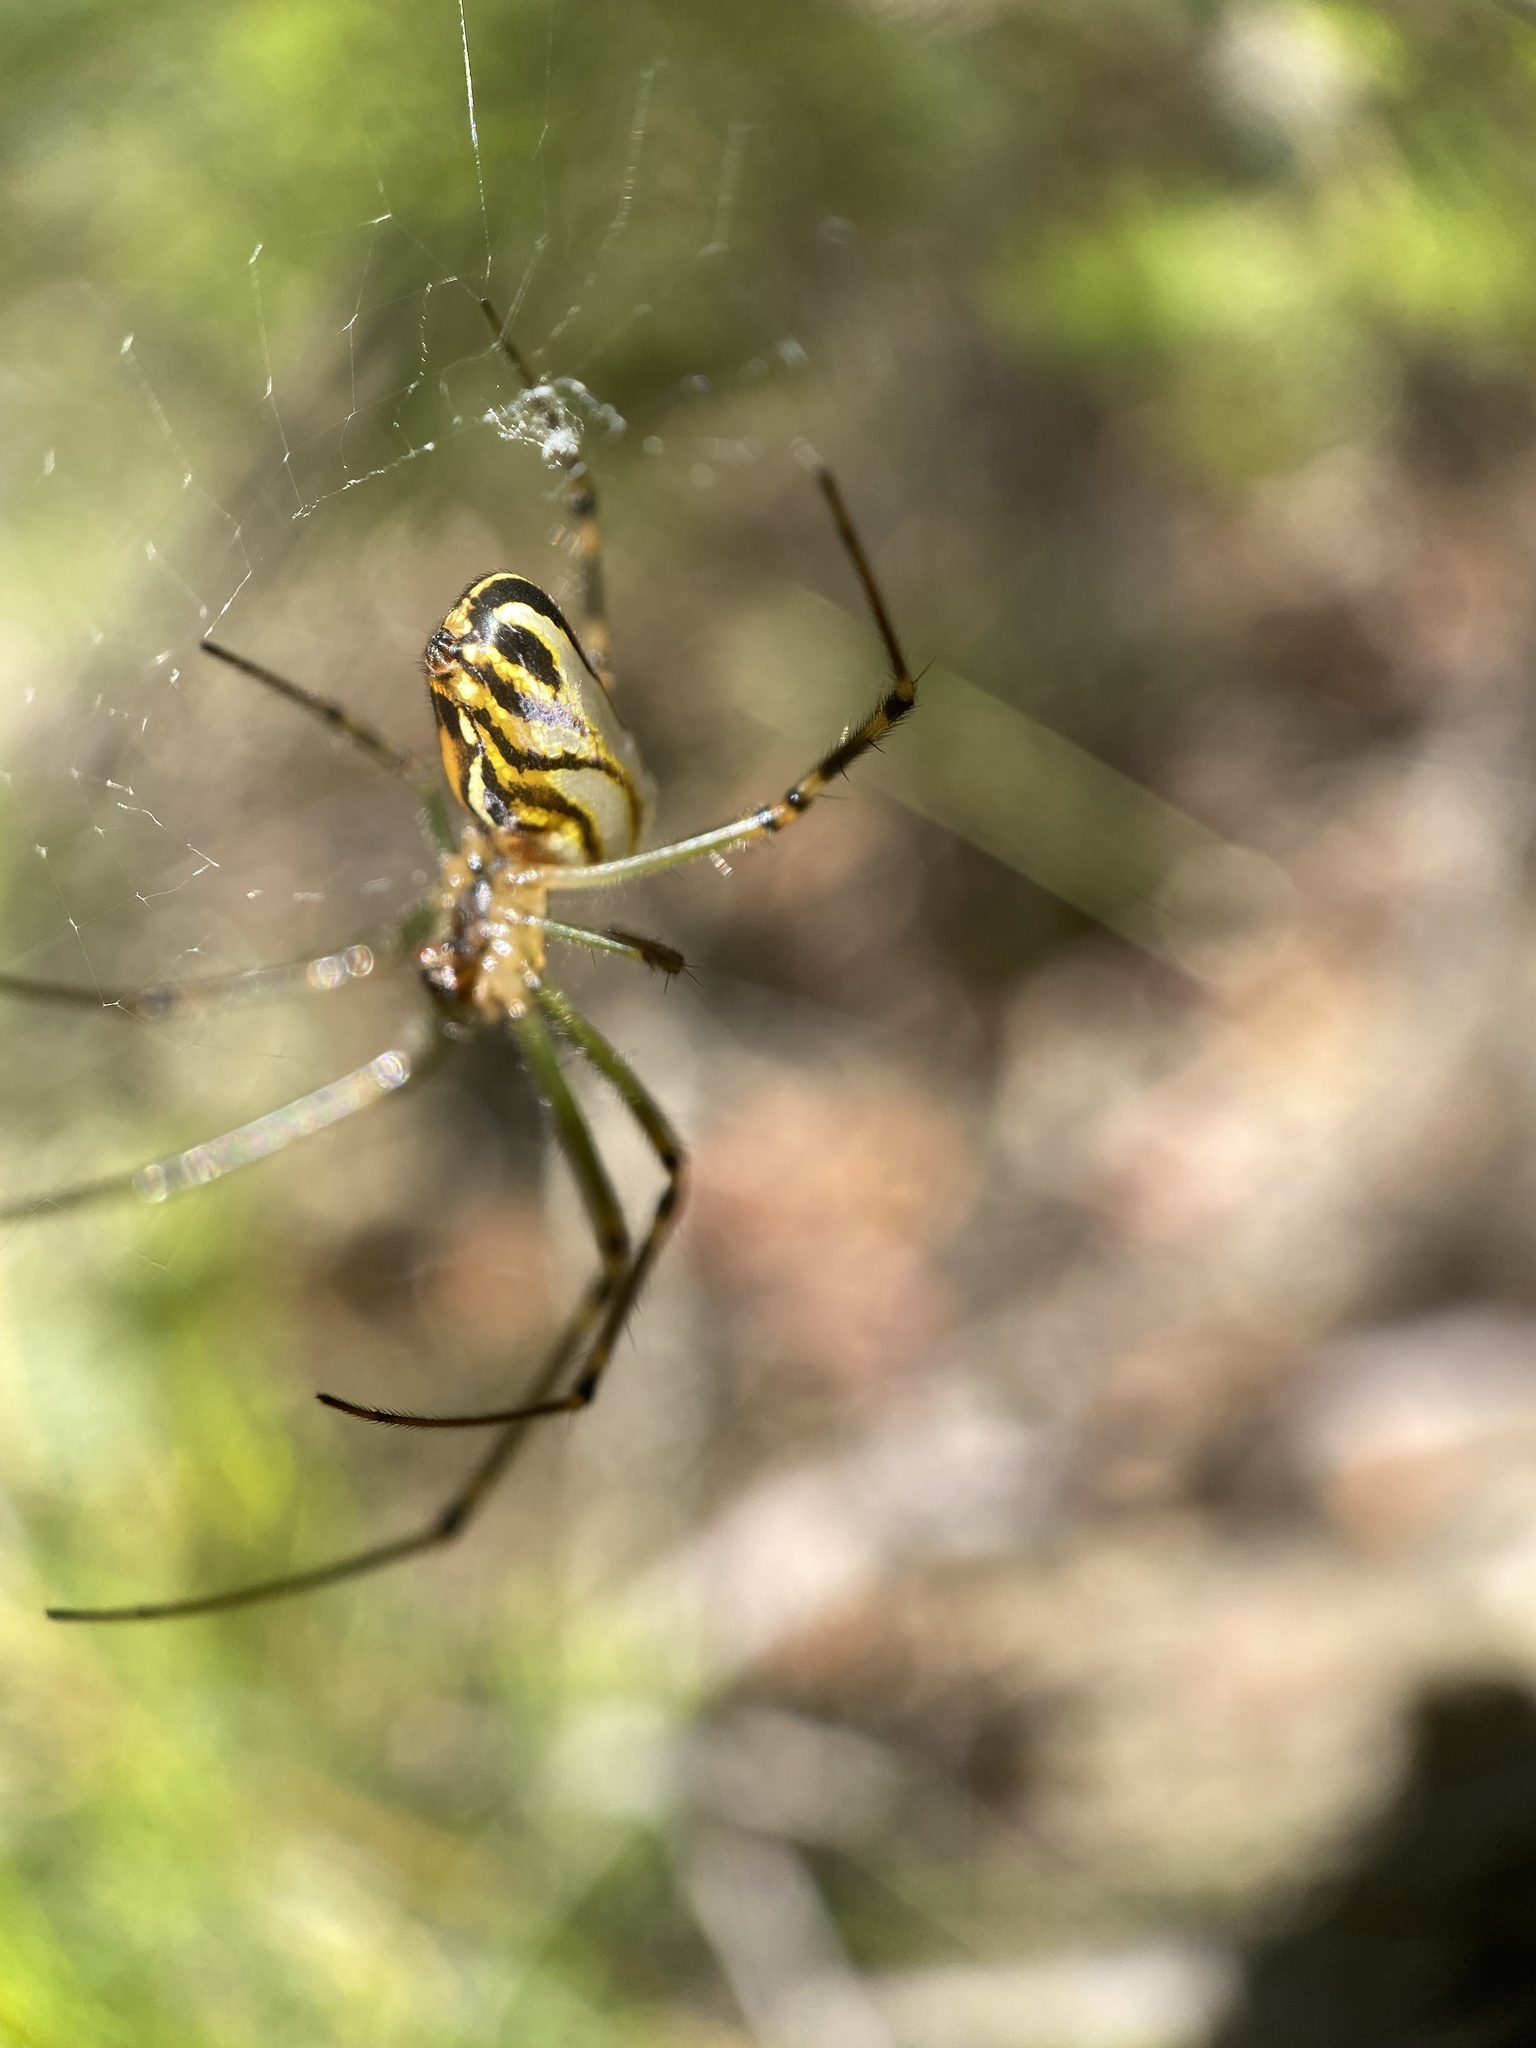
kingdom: Animalia
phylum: Arthropoda
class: Arachnida
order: Araneae
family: Tetragnathidae
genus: Leucauge
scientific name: Leucauge dromedaria
